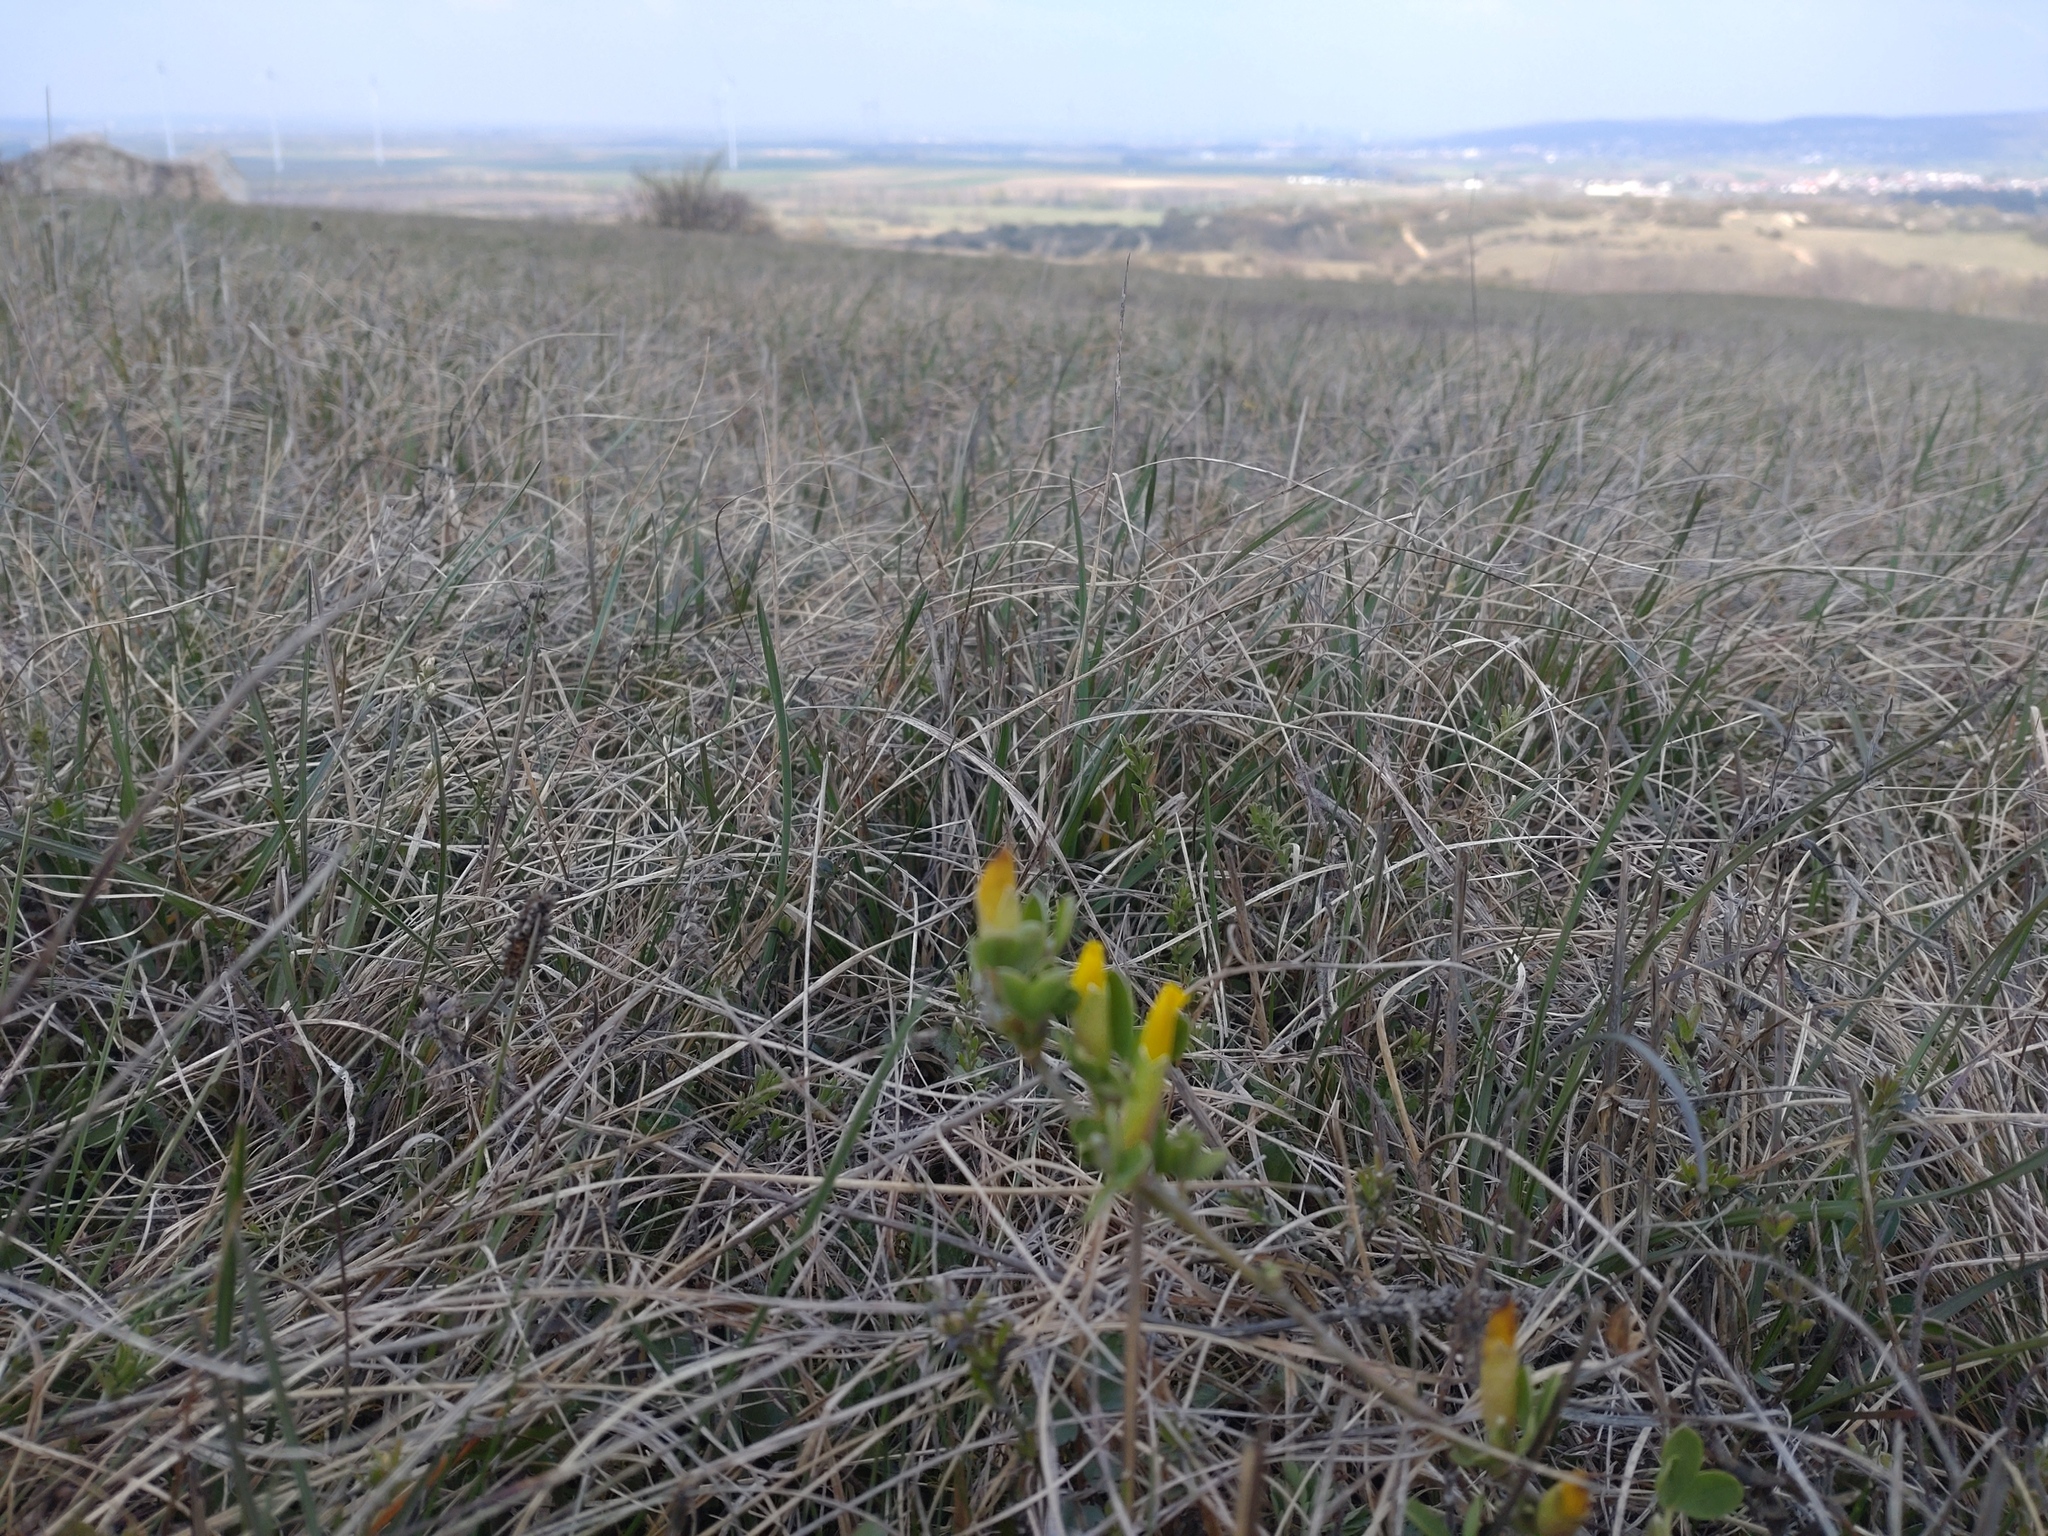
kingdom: Plantae
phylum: Tracheophyta
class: Magnoliopsida
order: Fabales
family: Fabaceae
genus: Chamaecytisus
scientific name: Chamaecytisus ratisbonensis
